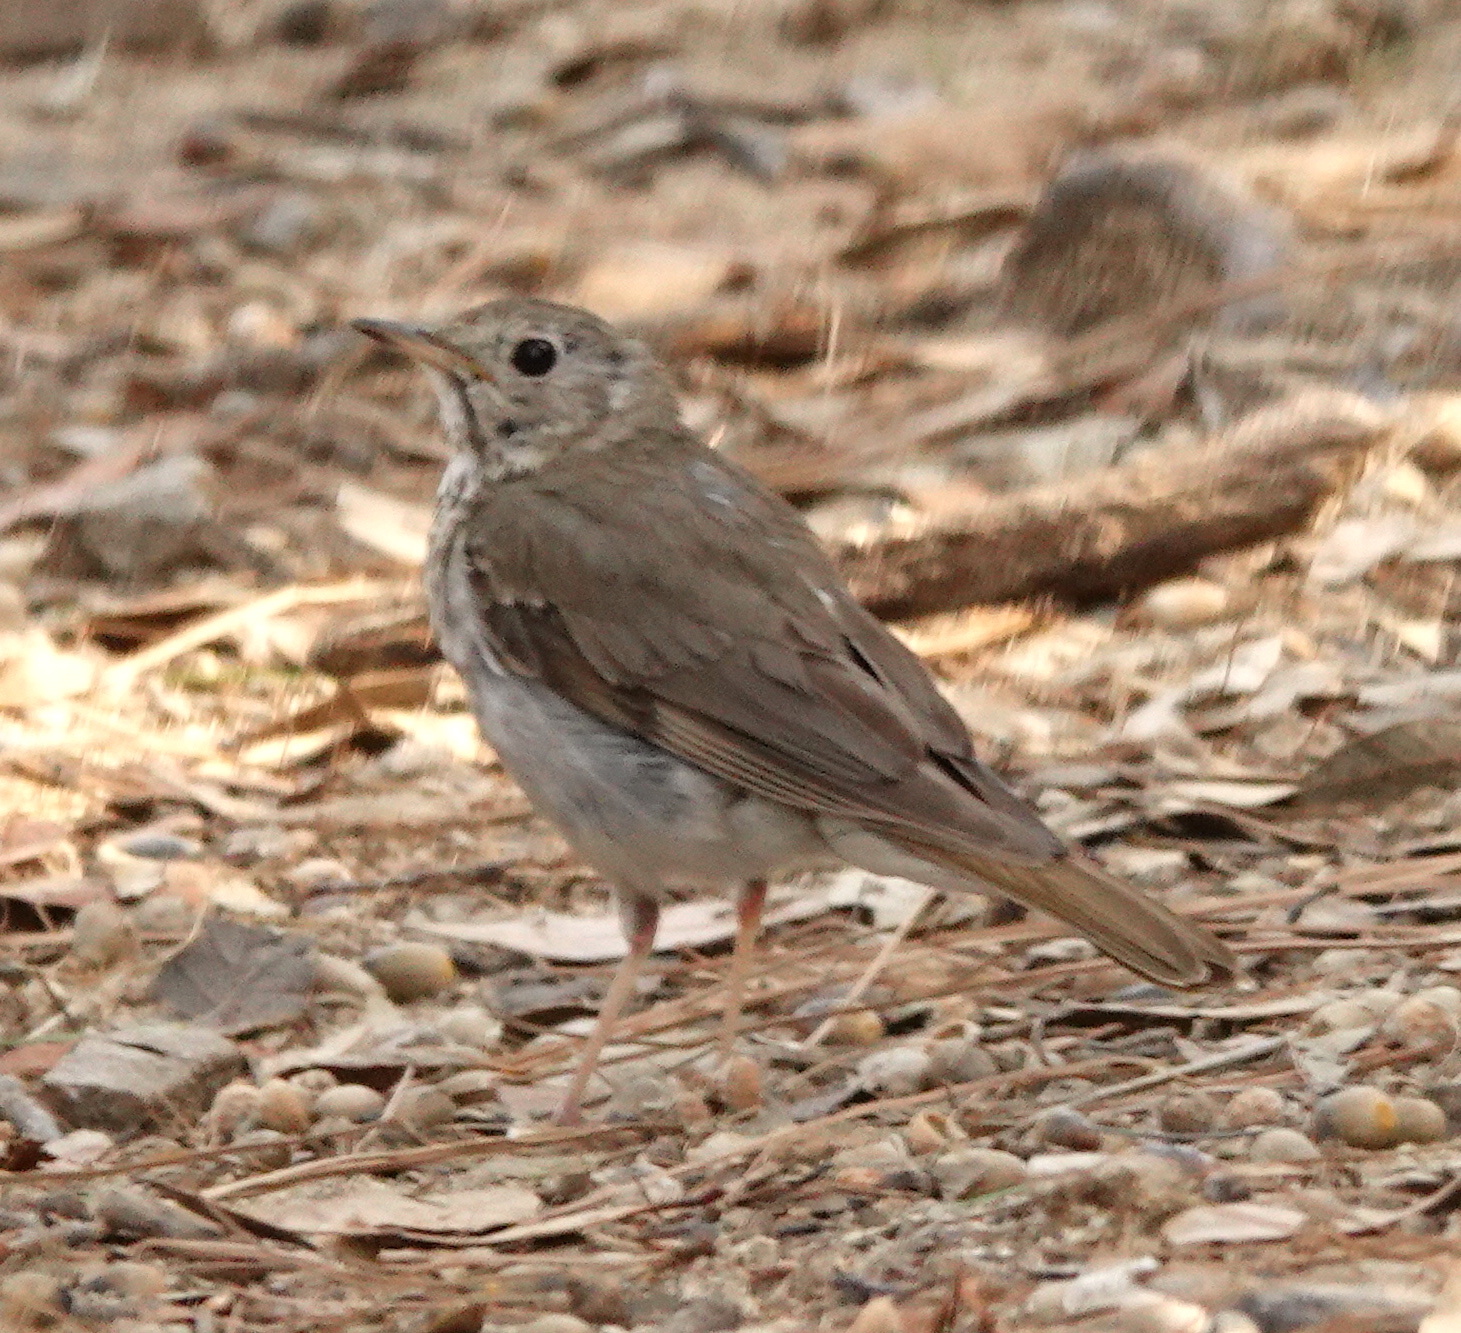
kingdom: Animalia
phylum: Chordata
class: Aves
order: Passeriformes
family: Turdidae
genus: Catharus
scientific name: Catharus guttatus
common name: Hermit thrush
